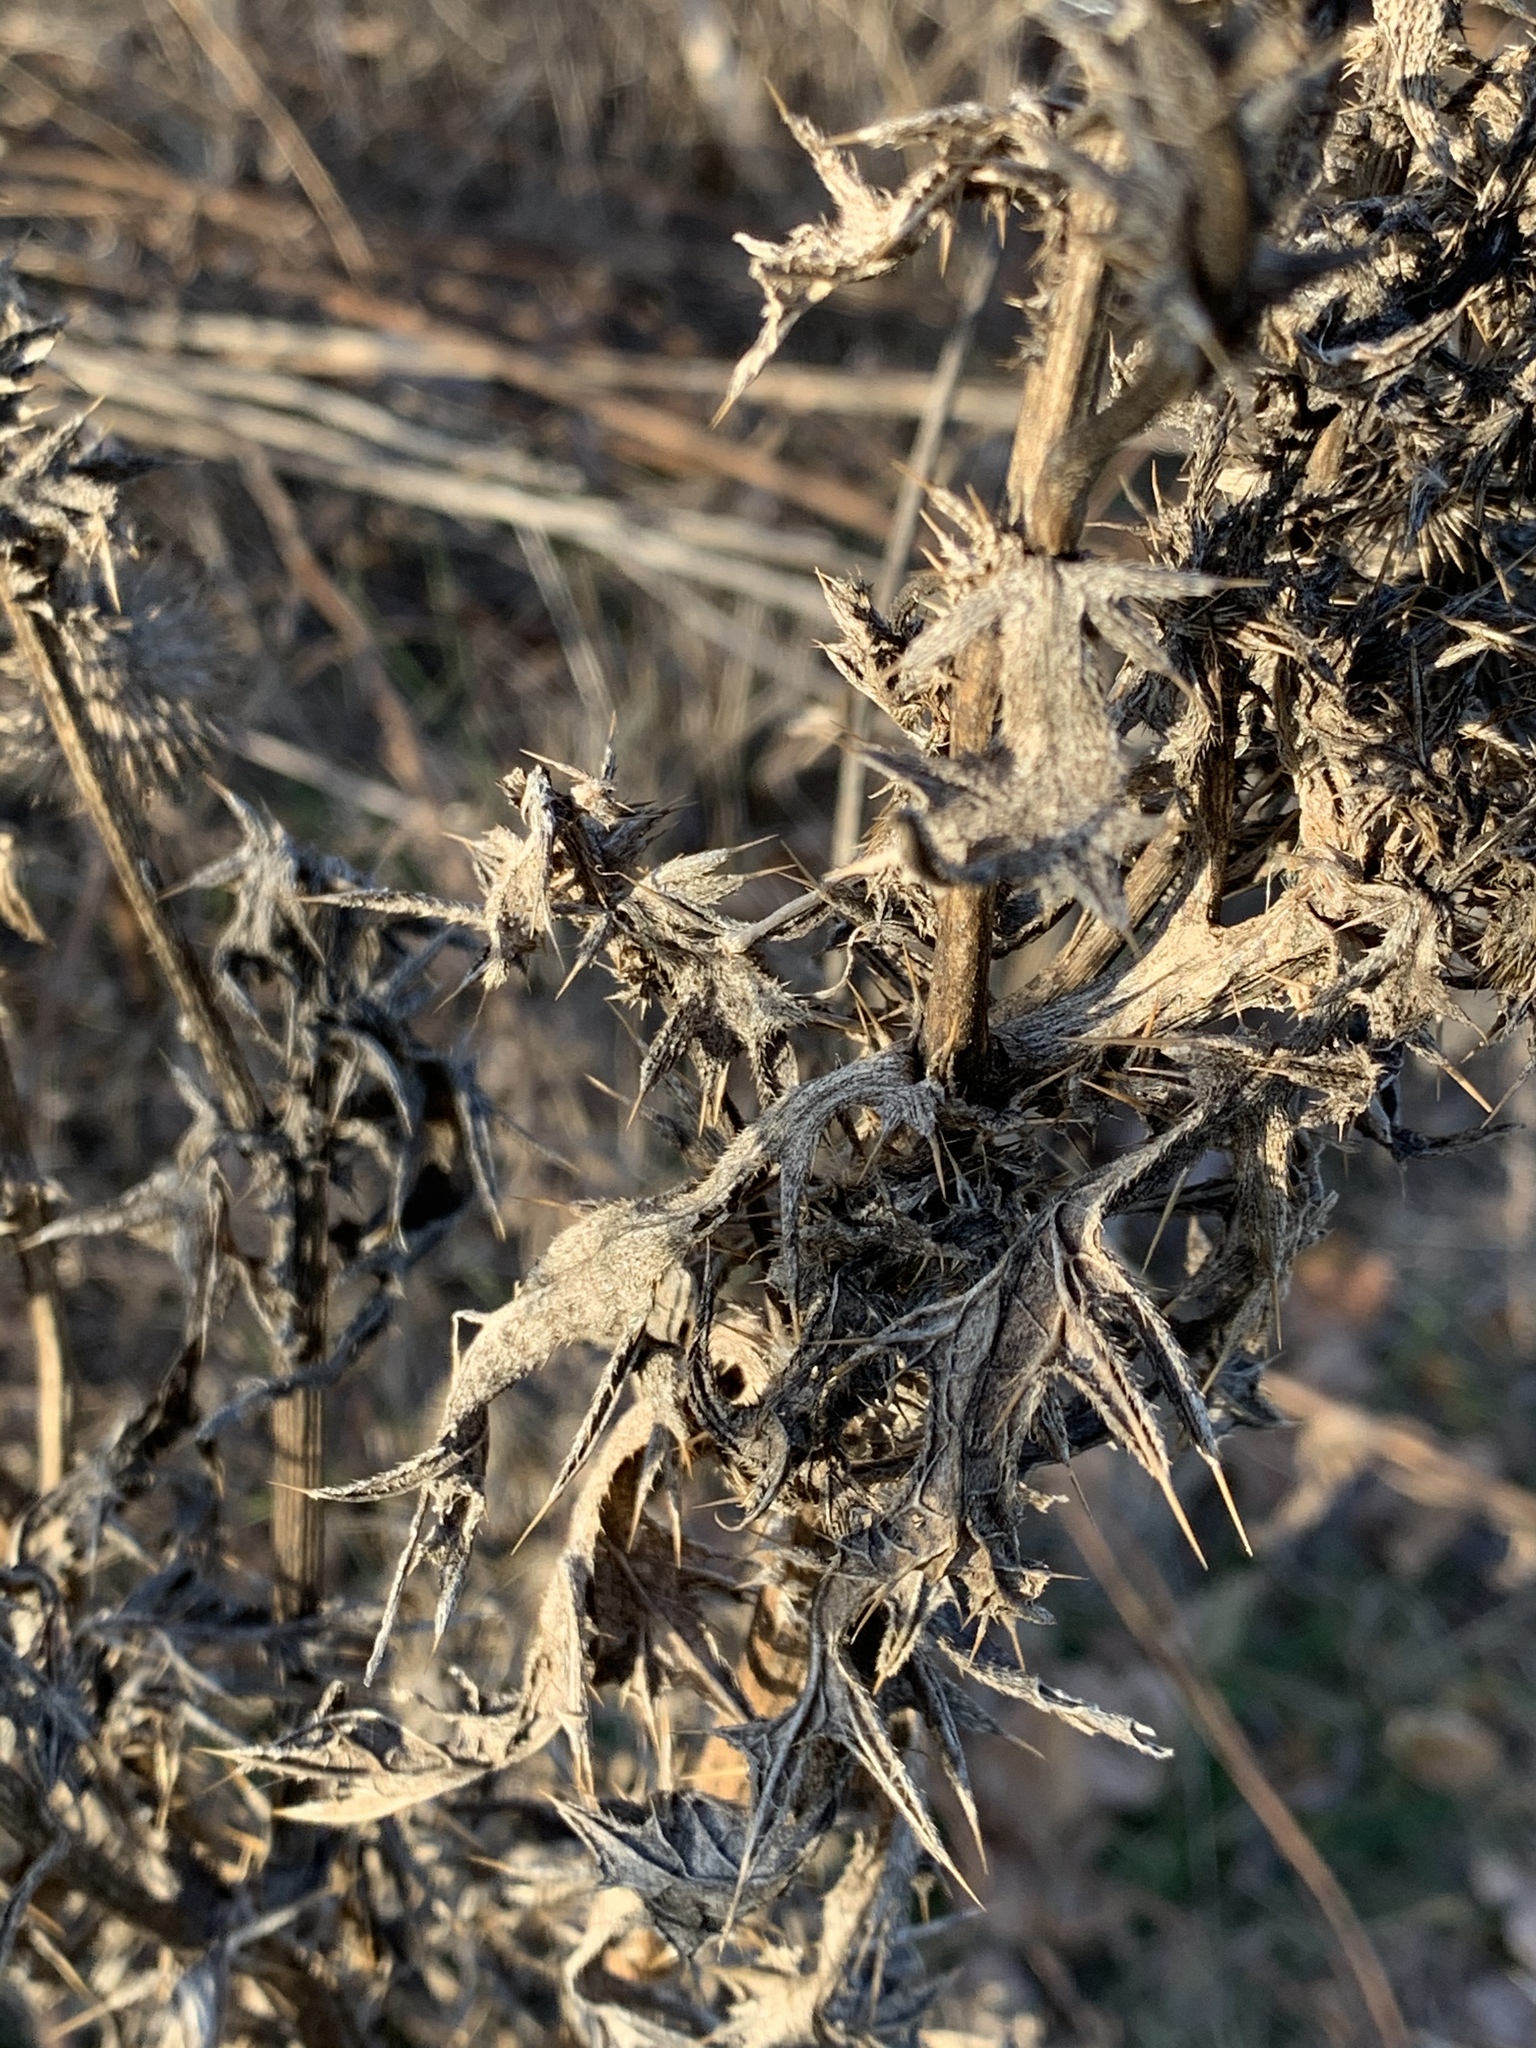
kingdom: Plantae
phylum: Tracheophyta
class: Magnoliopsida
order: Asterales
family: Asteraceae
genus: Cirsium
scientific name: Cirsium vulgare
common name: Bull thistle
